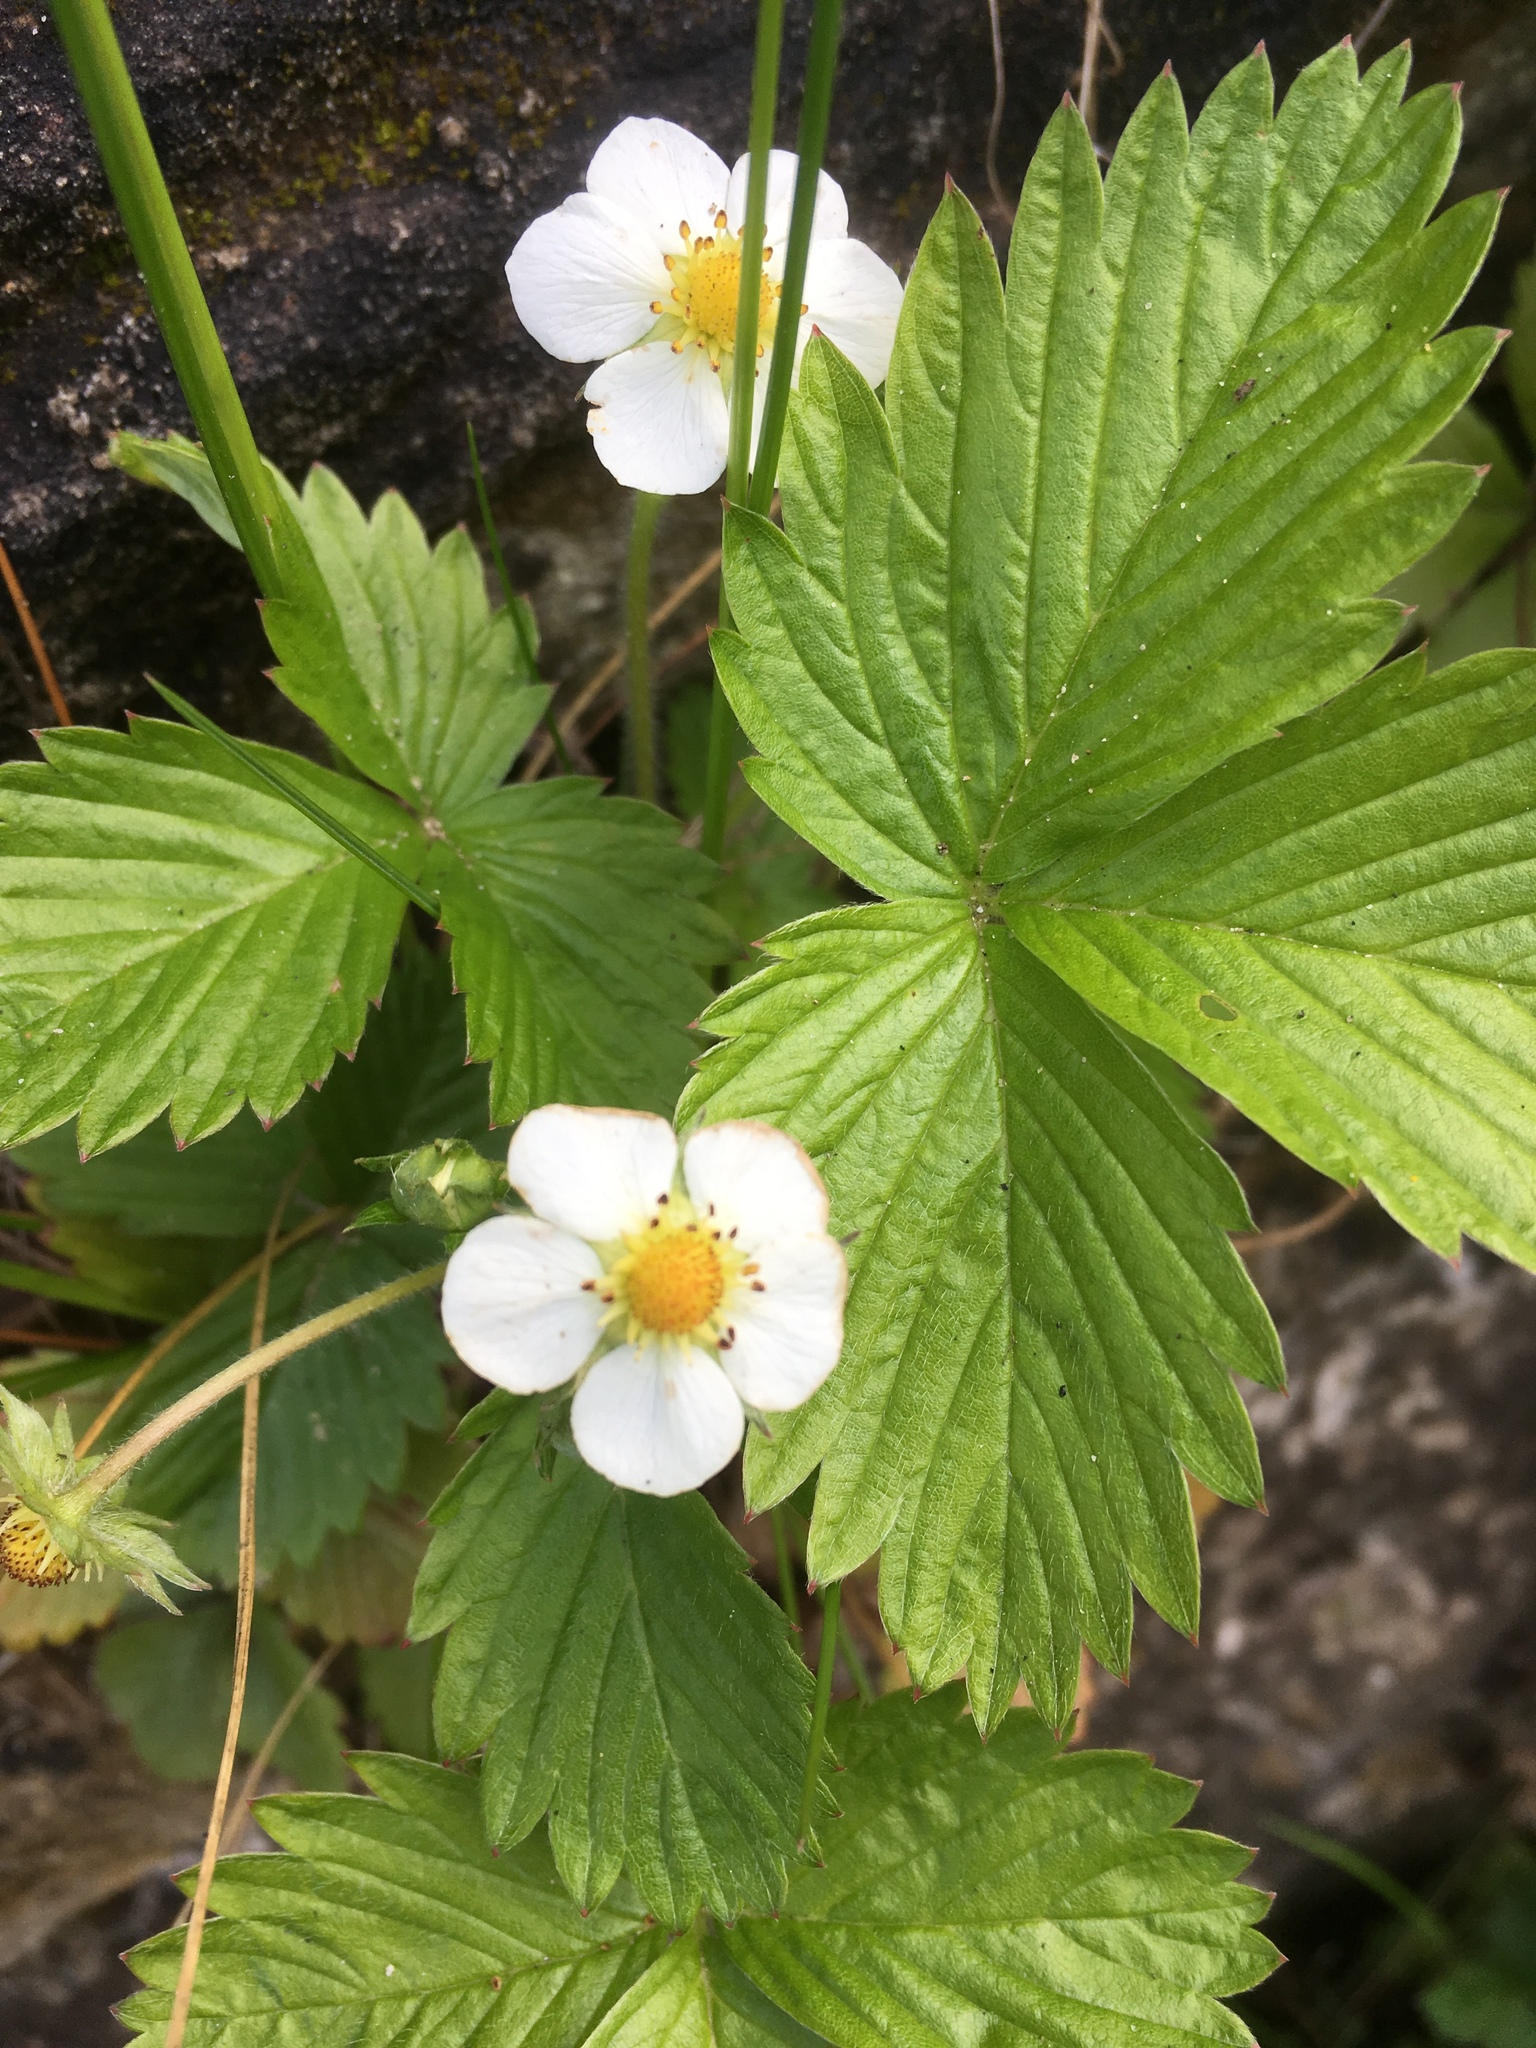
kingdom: Plantae
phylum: Tracheophyta
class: Magnoliopsida
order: Rosales
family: Rosaceae
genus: Fragaria
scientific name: Fragaria vesca
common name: Wild strawberry
